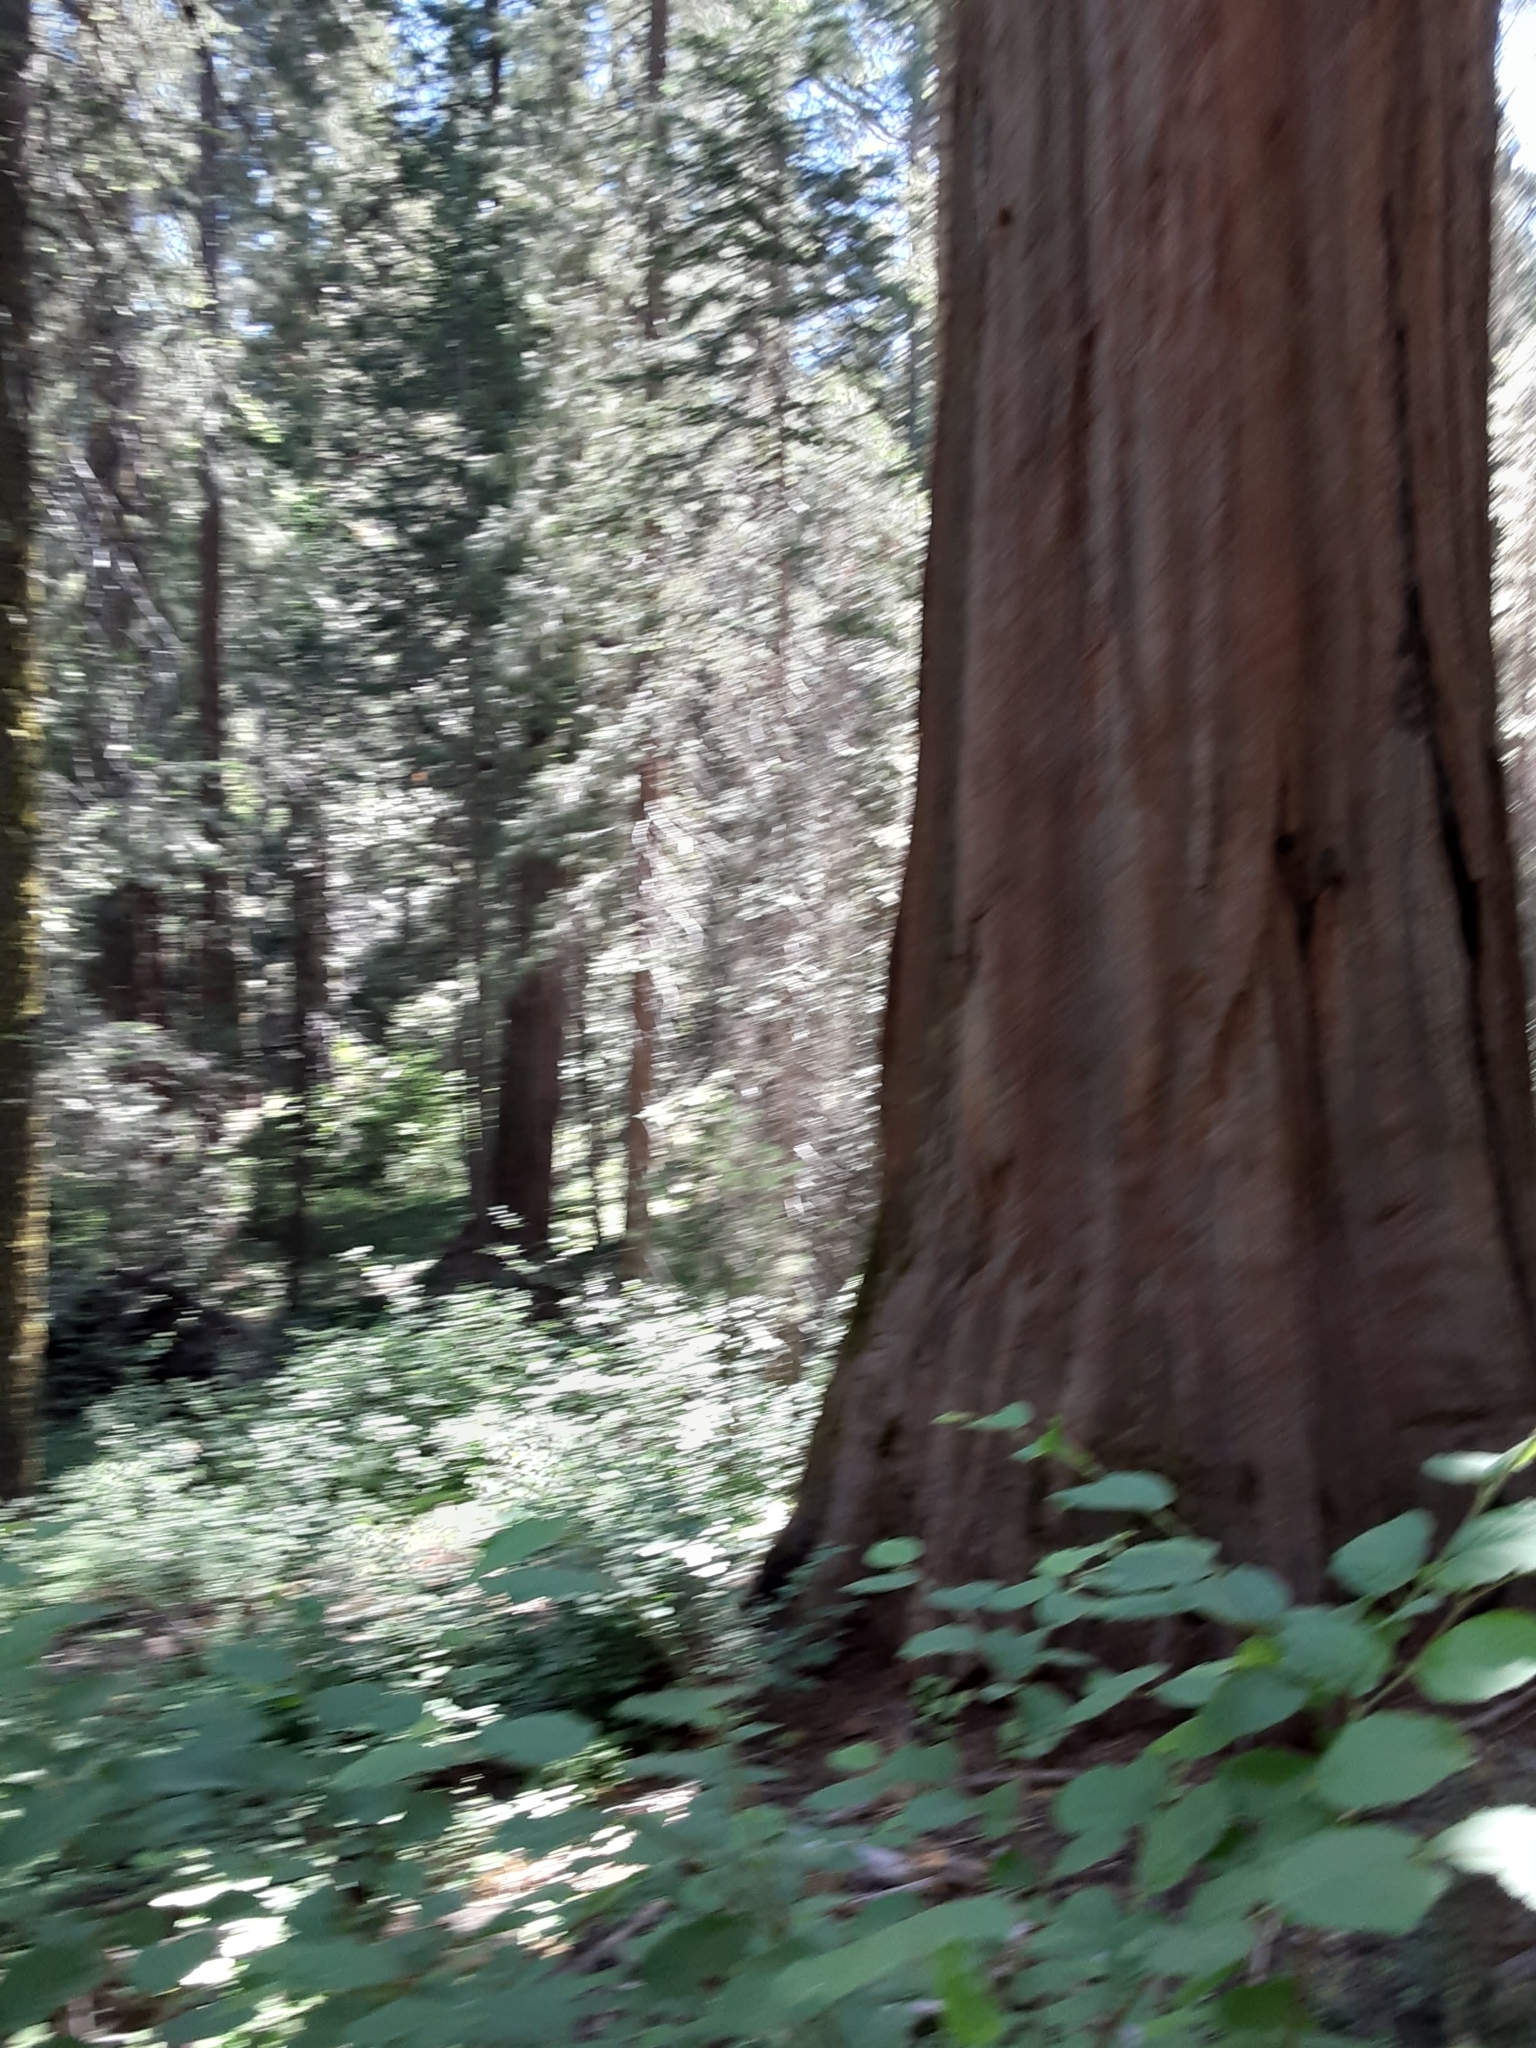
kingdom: Plantae
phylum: Tracheophyta
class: Pinopsida
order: Pinales
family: Cupressaceae
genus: Sequoiadendron
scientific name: Sequoiadendron giganteum
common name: Wellingtonia
